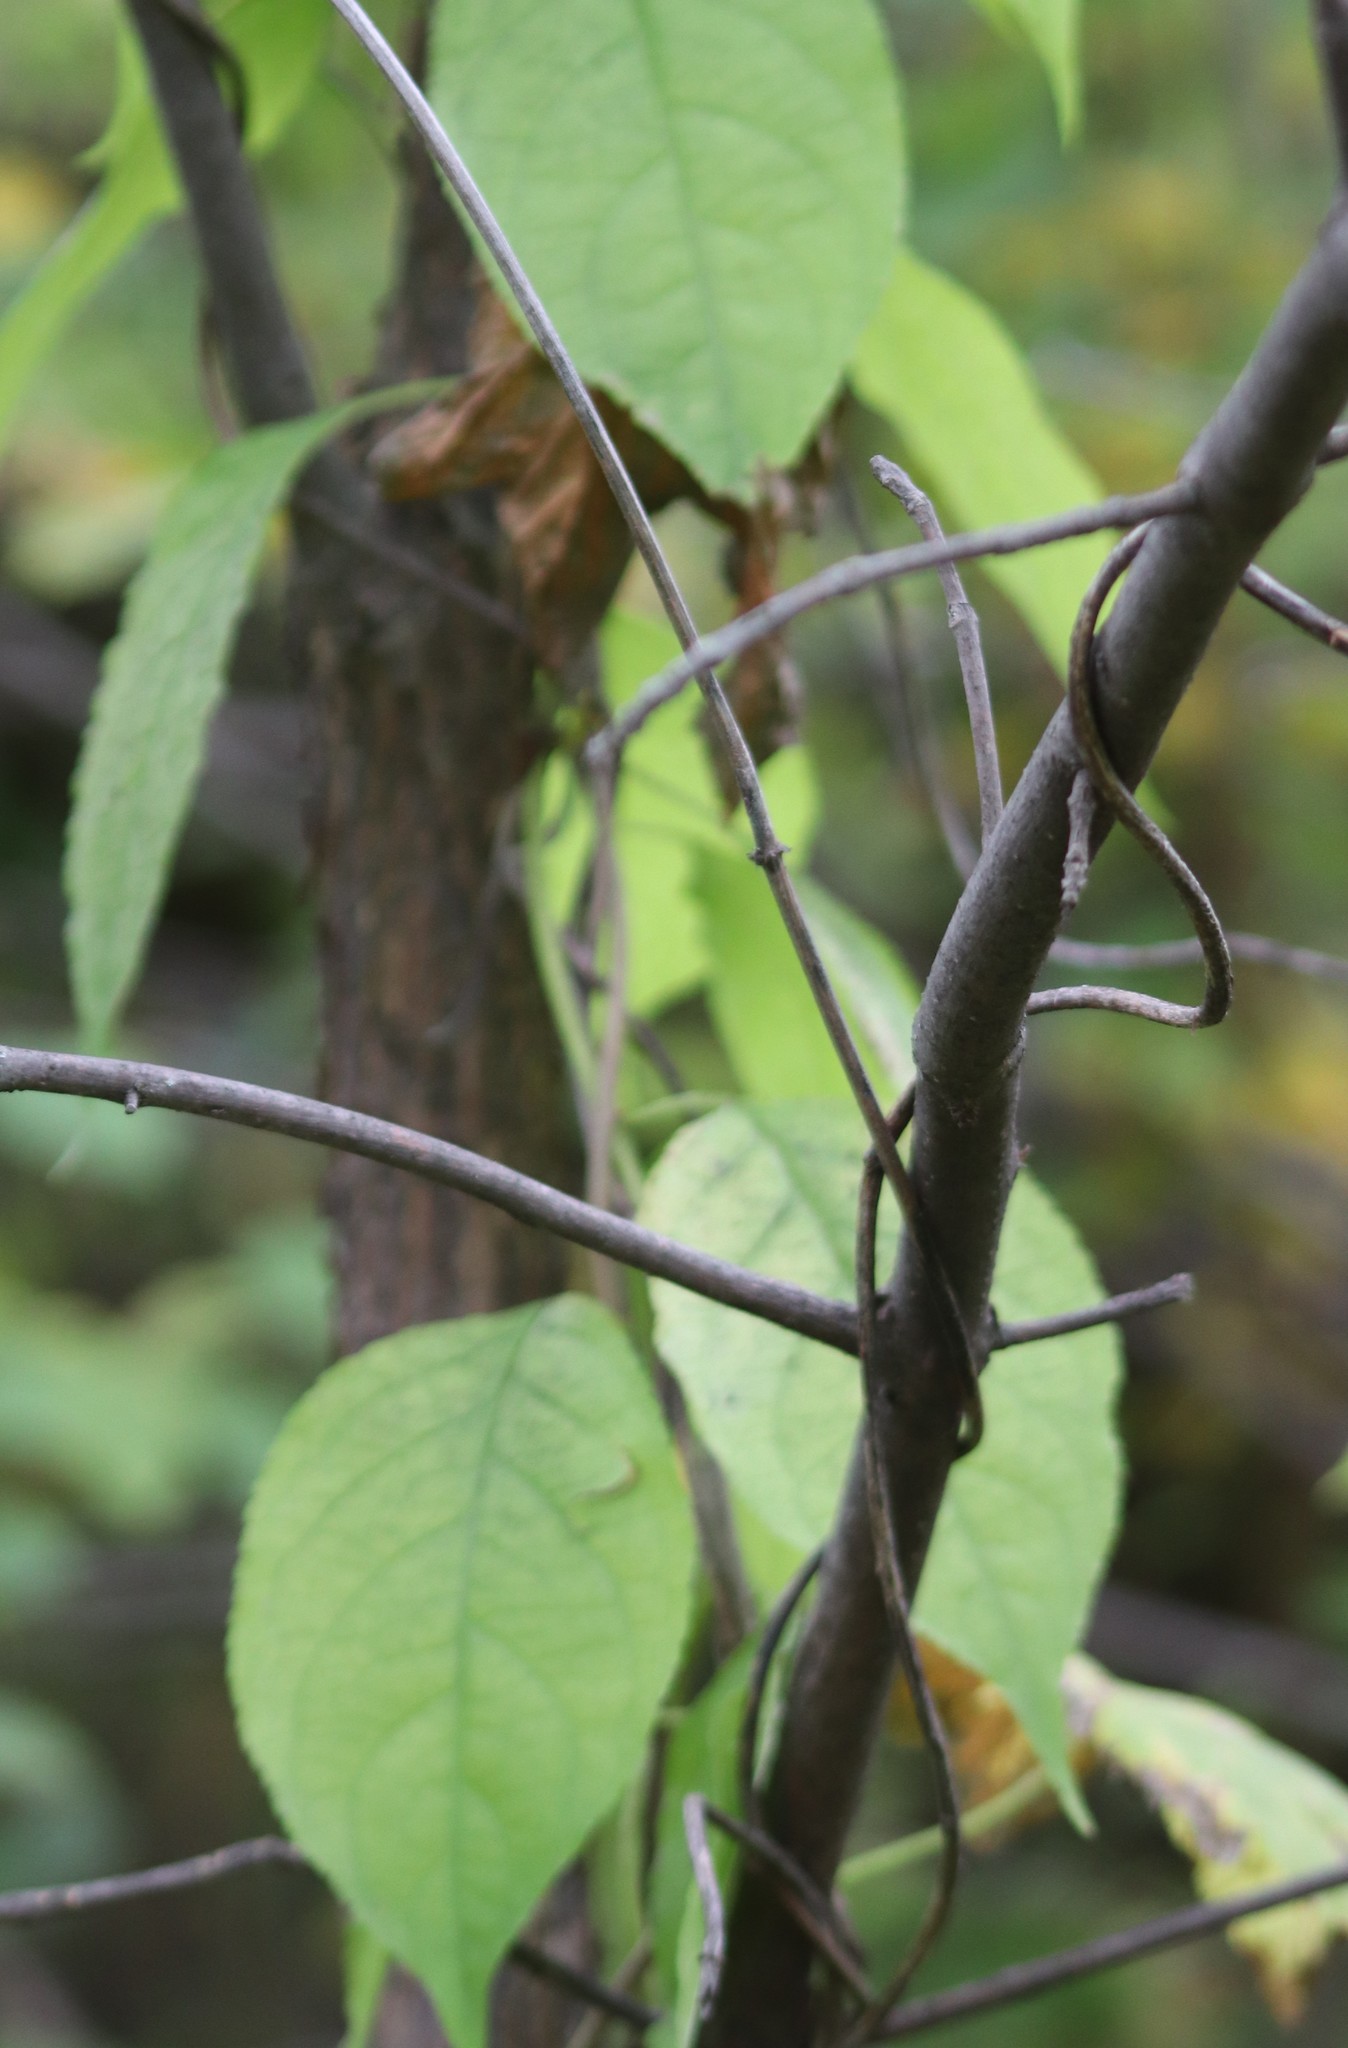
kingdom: Plantae
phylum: Tracheophyta
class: Magnoliopsida
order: Celastrales
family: Celastraceae
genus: Celastrus
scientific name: Celastrus scandens
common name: American bittersweet
